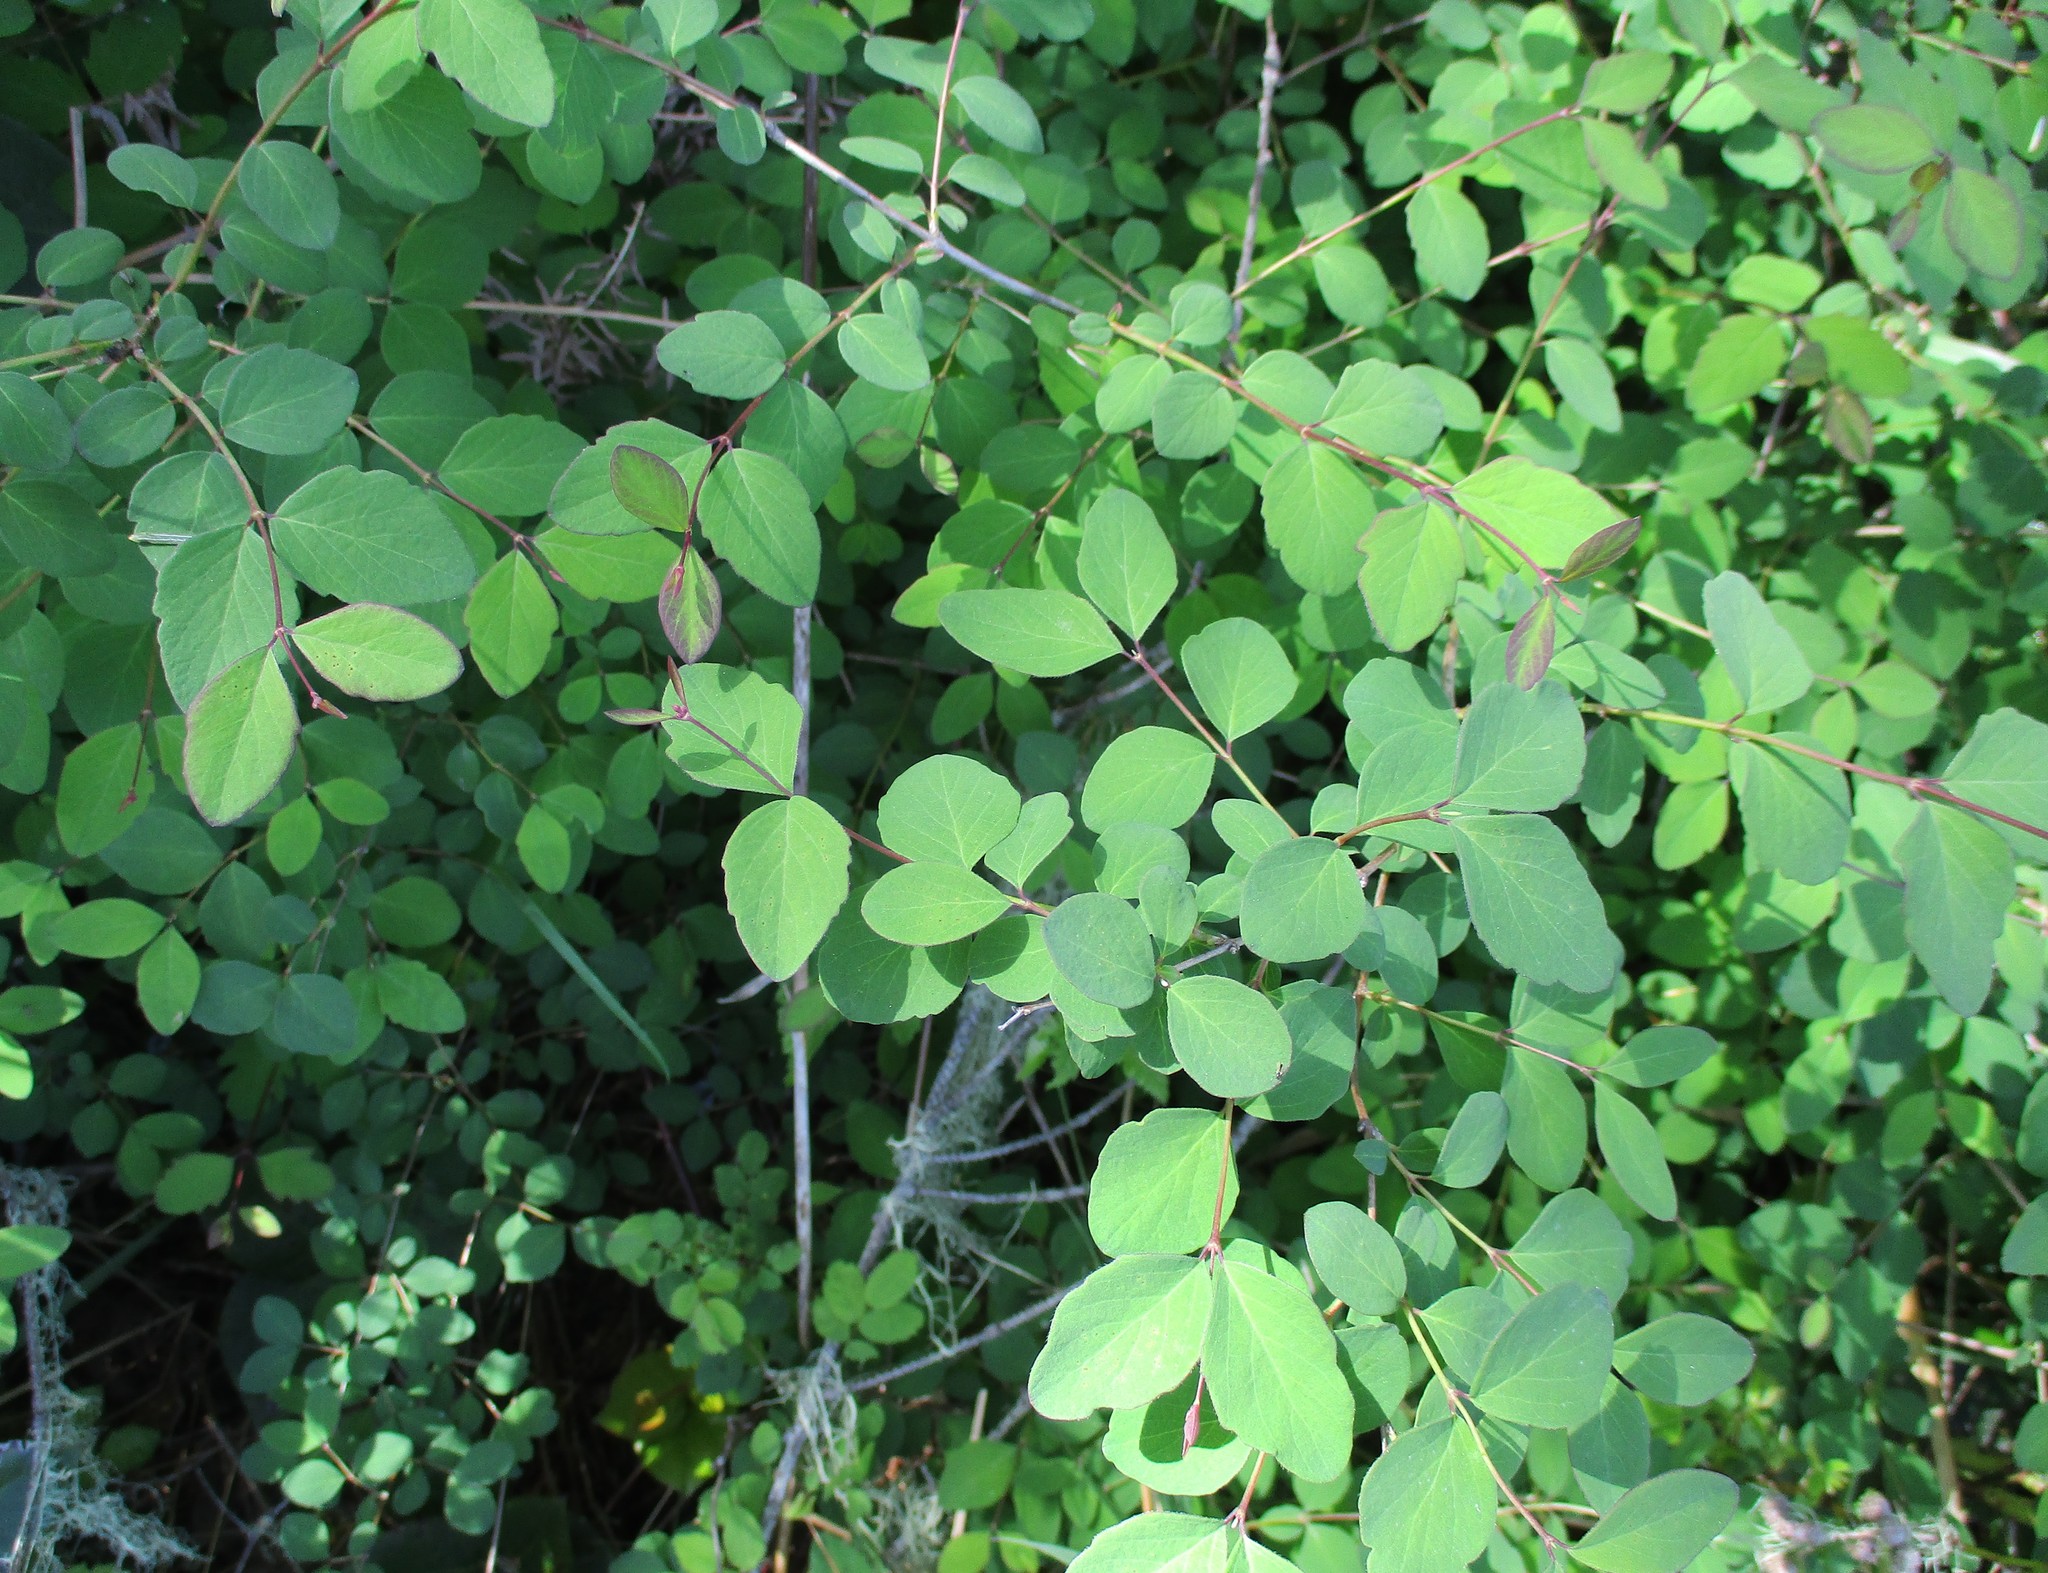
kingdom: Plantae
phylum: Tracheophyta
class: Magnoliopsida
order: Dipsacales
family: Caprifoliaceae
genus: Symphoricarpos
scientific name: Symphoricarpos albus
